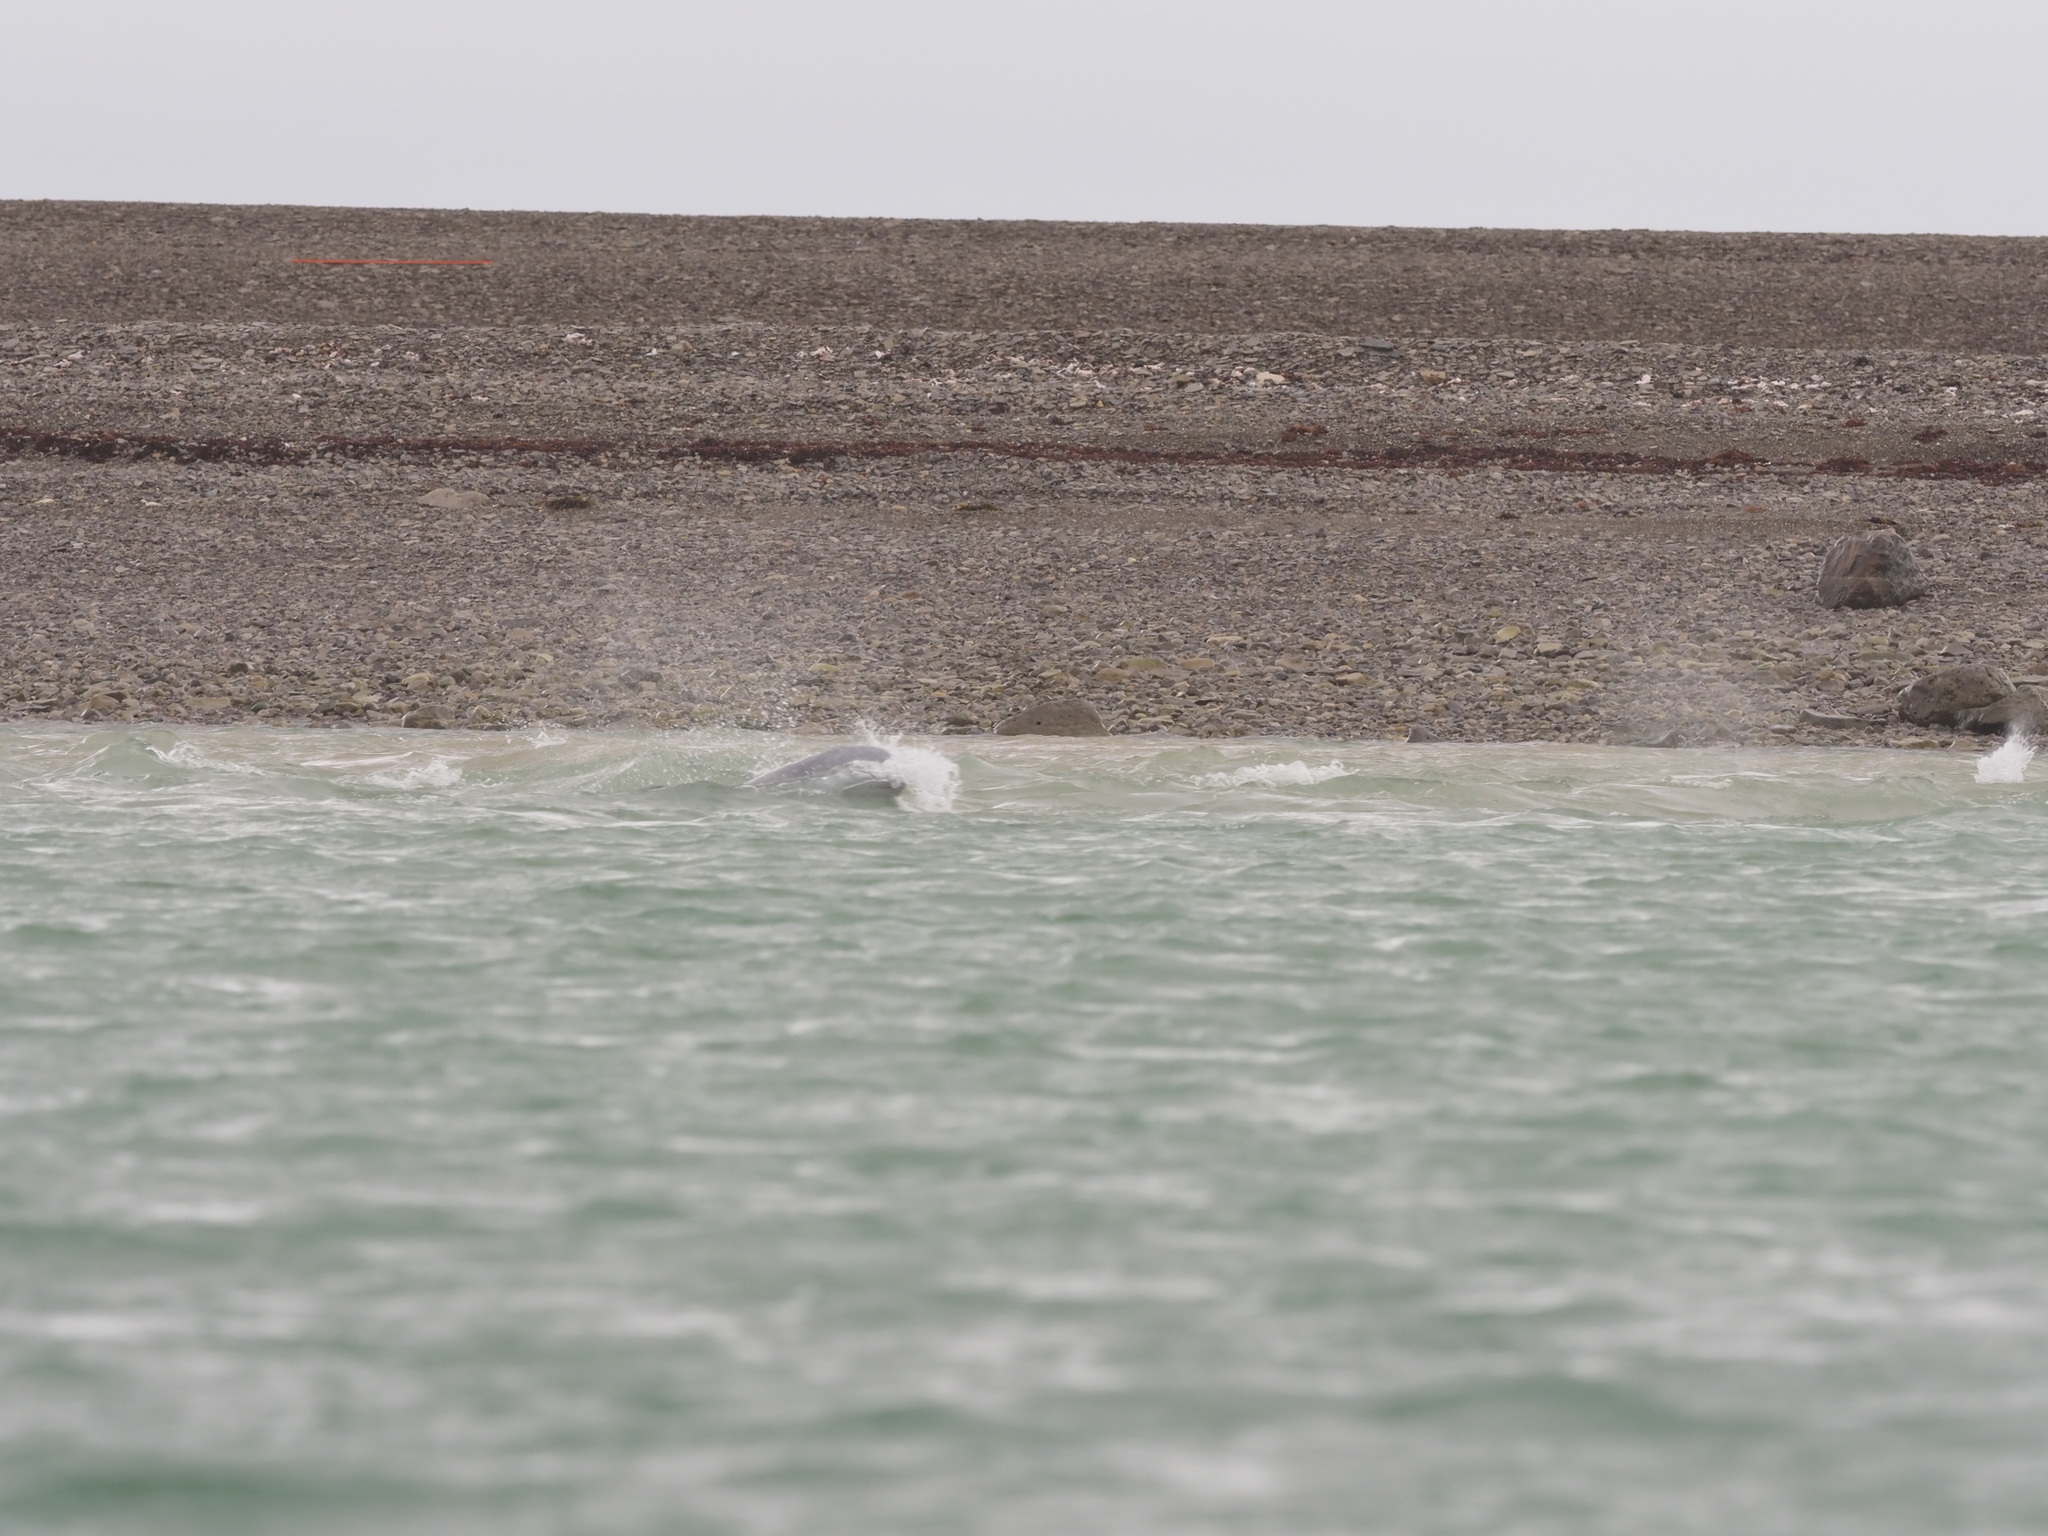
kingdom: Animalia
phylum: Chordata
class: Mammalia
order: Cetacea
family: Monodontidae
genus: Delphinapterus
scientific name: Delphinapterus leucas
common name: Beluga
